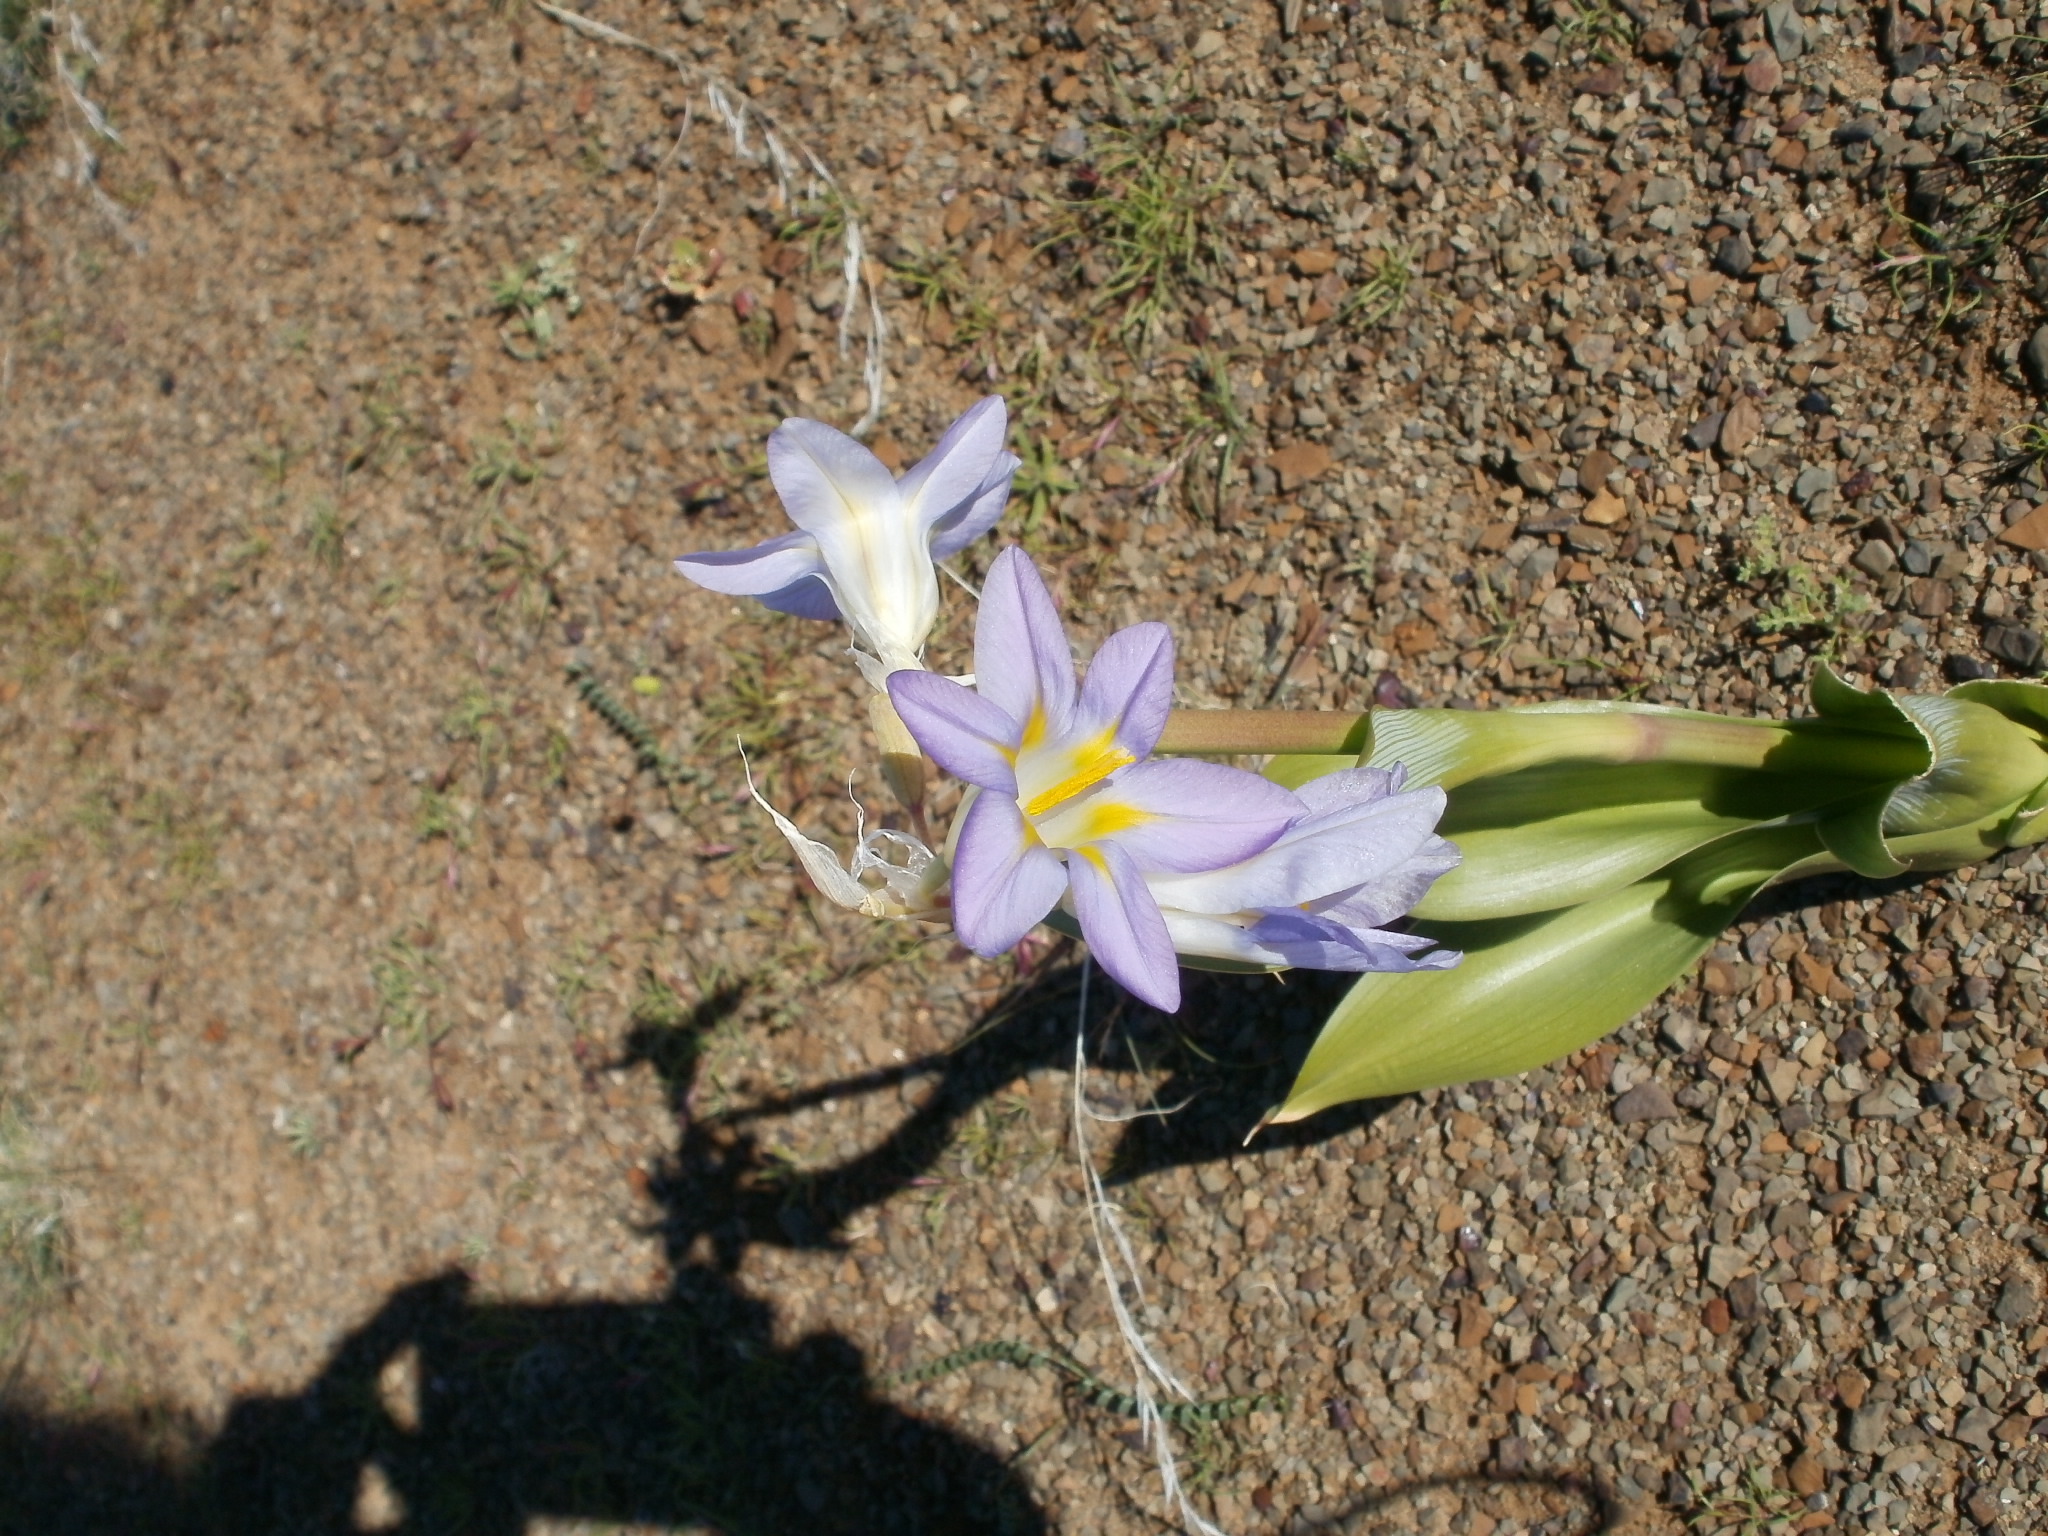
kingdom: Plantae
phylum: Tracheophyta
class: Liliopsida
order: Asparagales
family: Iridaceae
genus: Moraea
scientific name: Moraea speciosa
